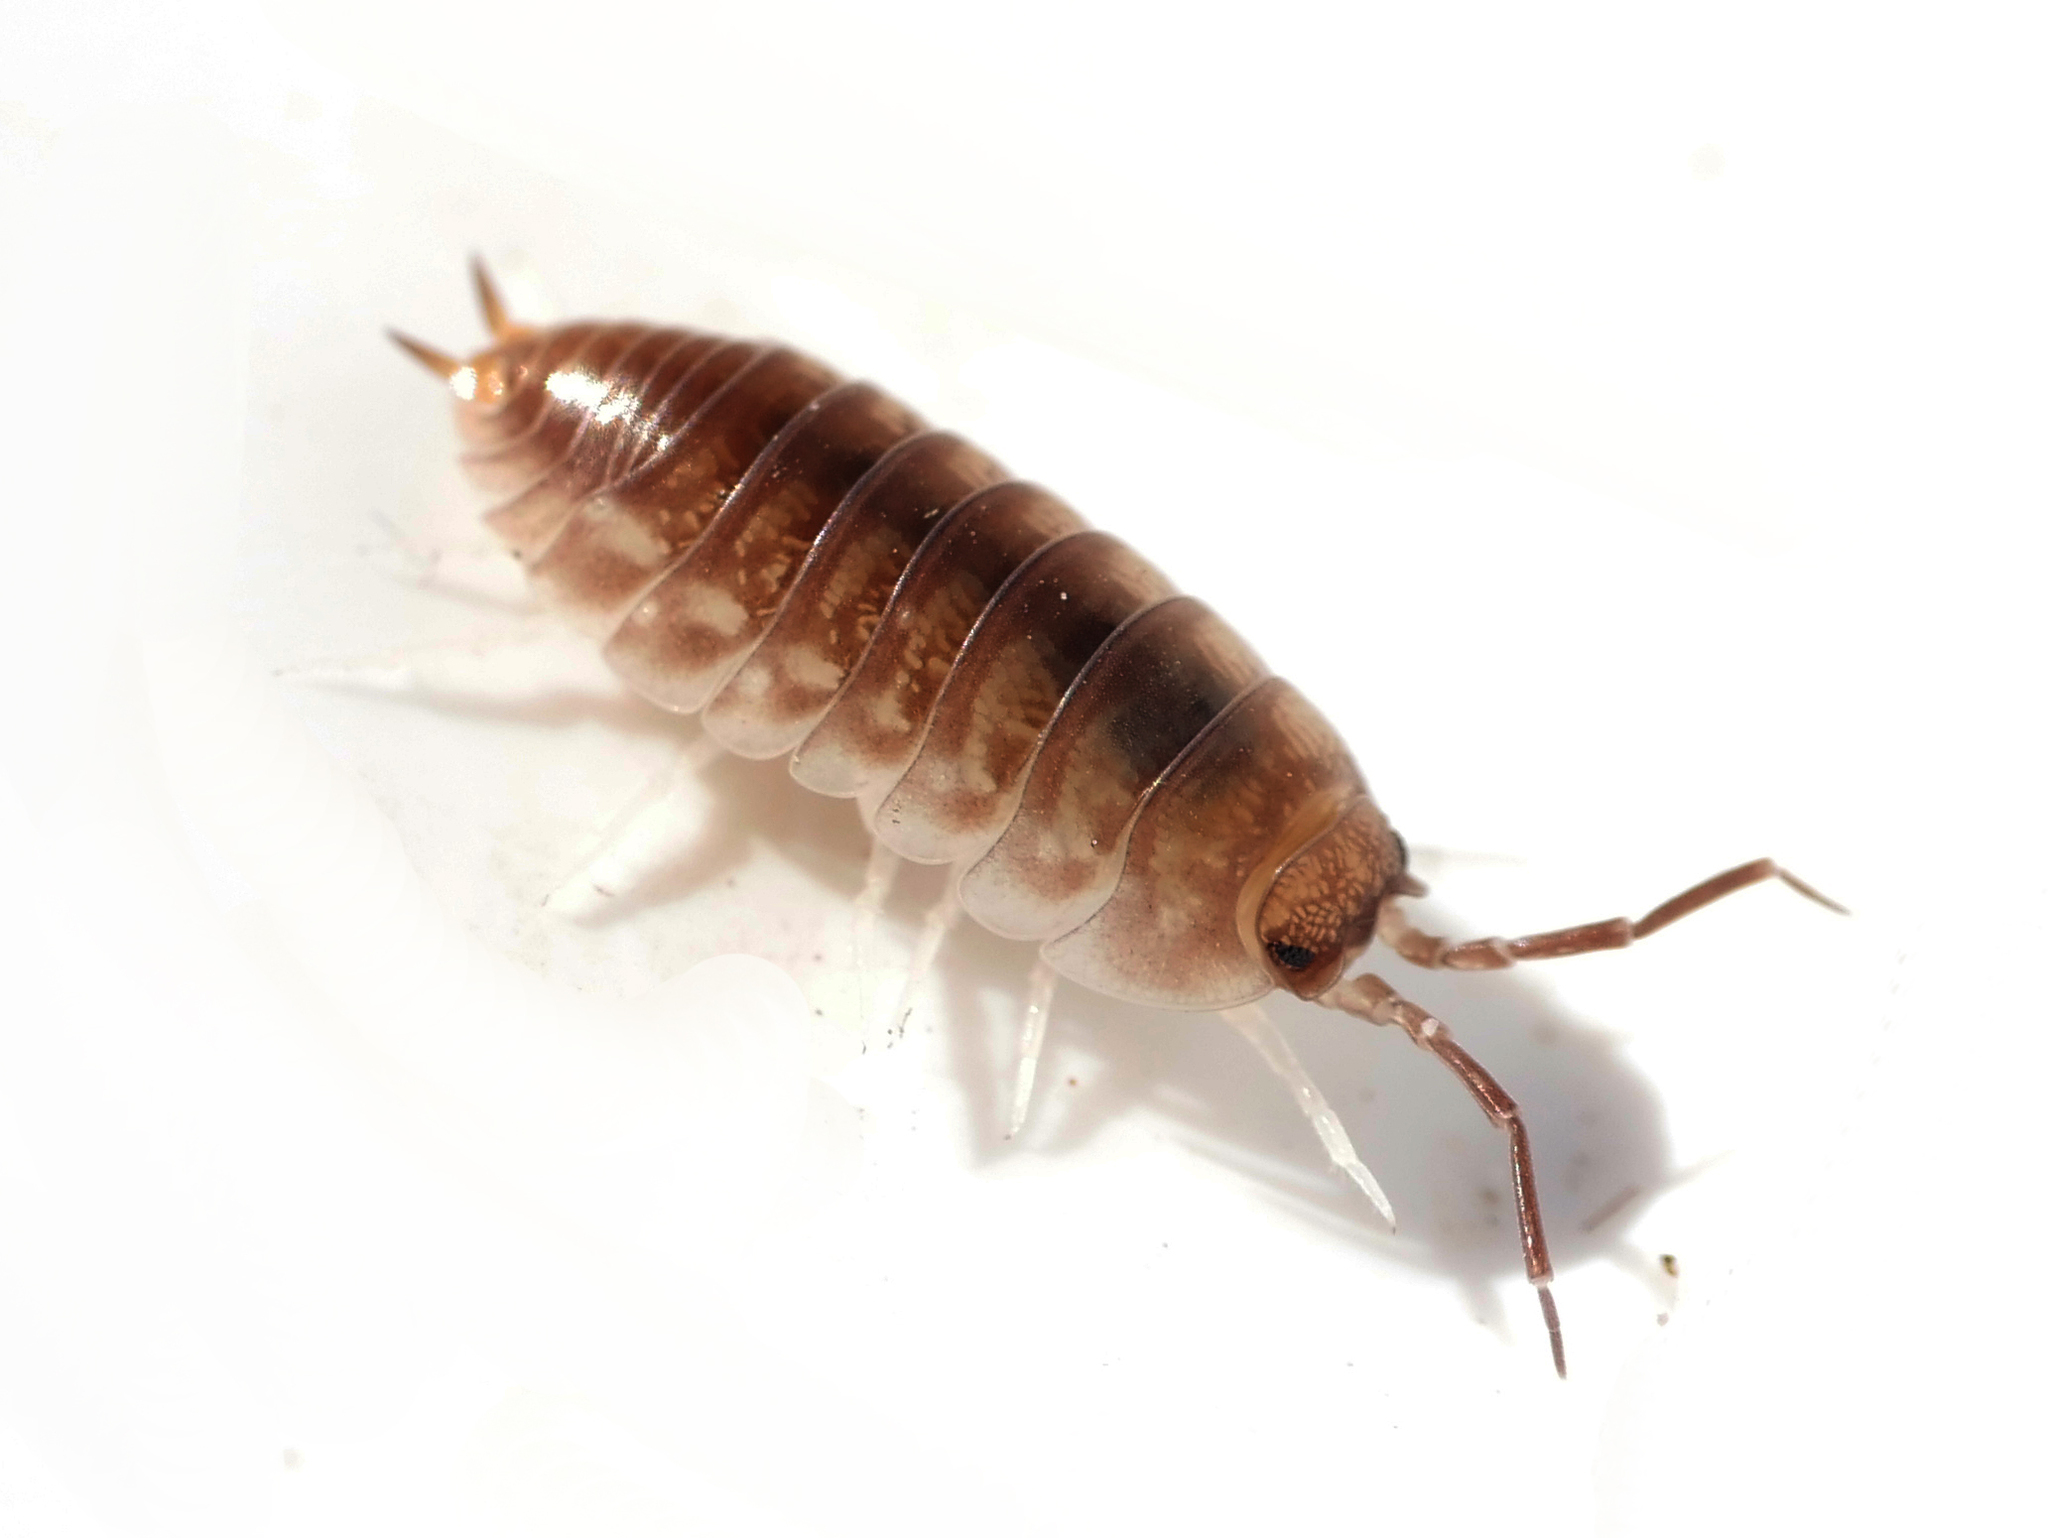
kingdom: Animalia
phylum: Arthropoda
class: Malacostraca
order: Isopoda
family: Cylisticidae
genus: Cylisticus
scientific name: Cylisticus convexus
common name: Curly woodlouse
